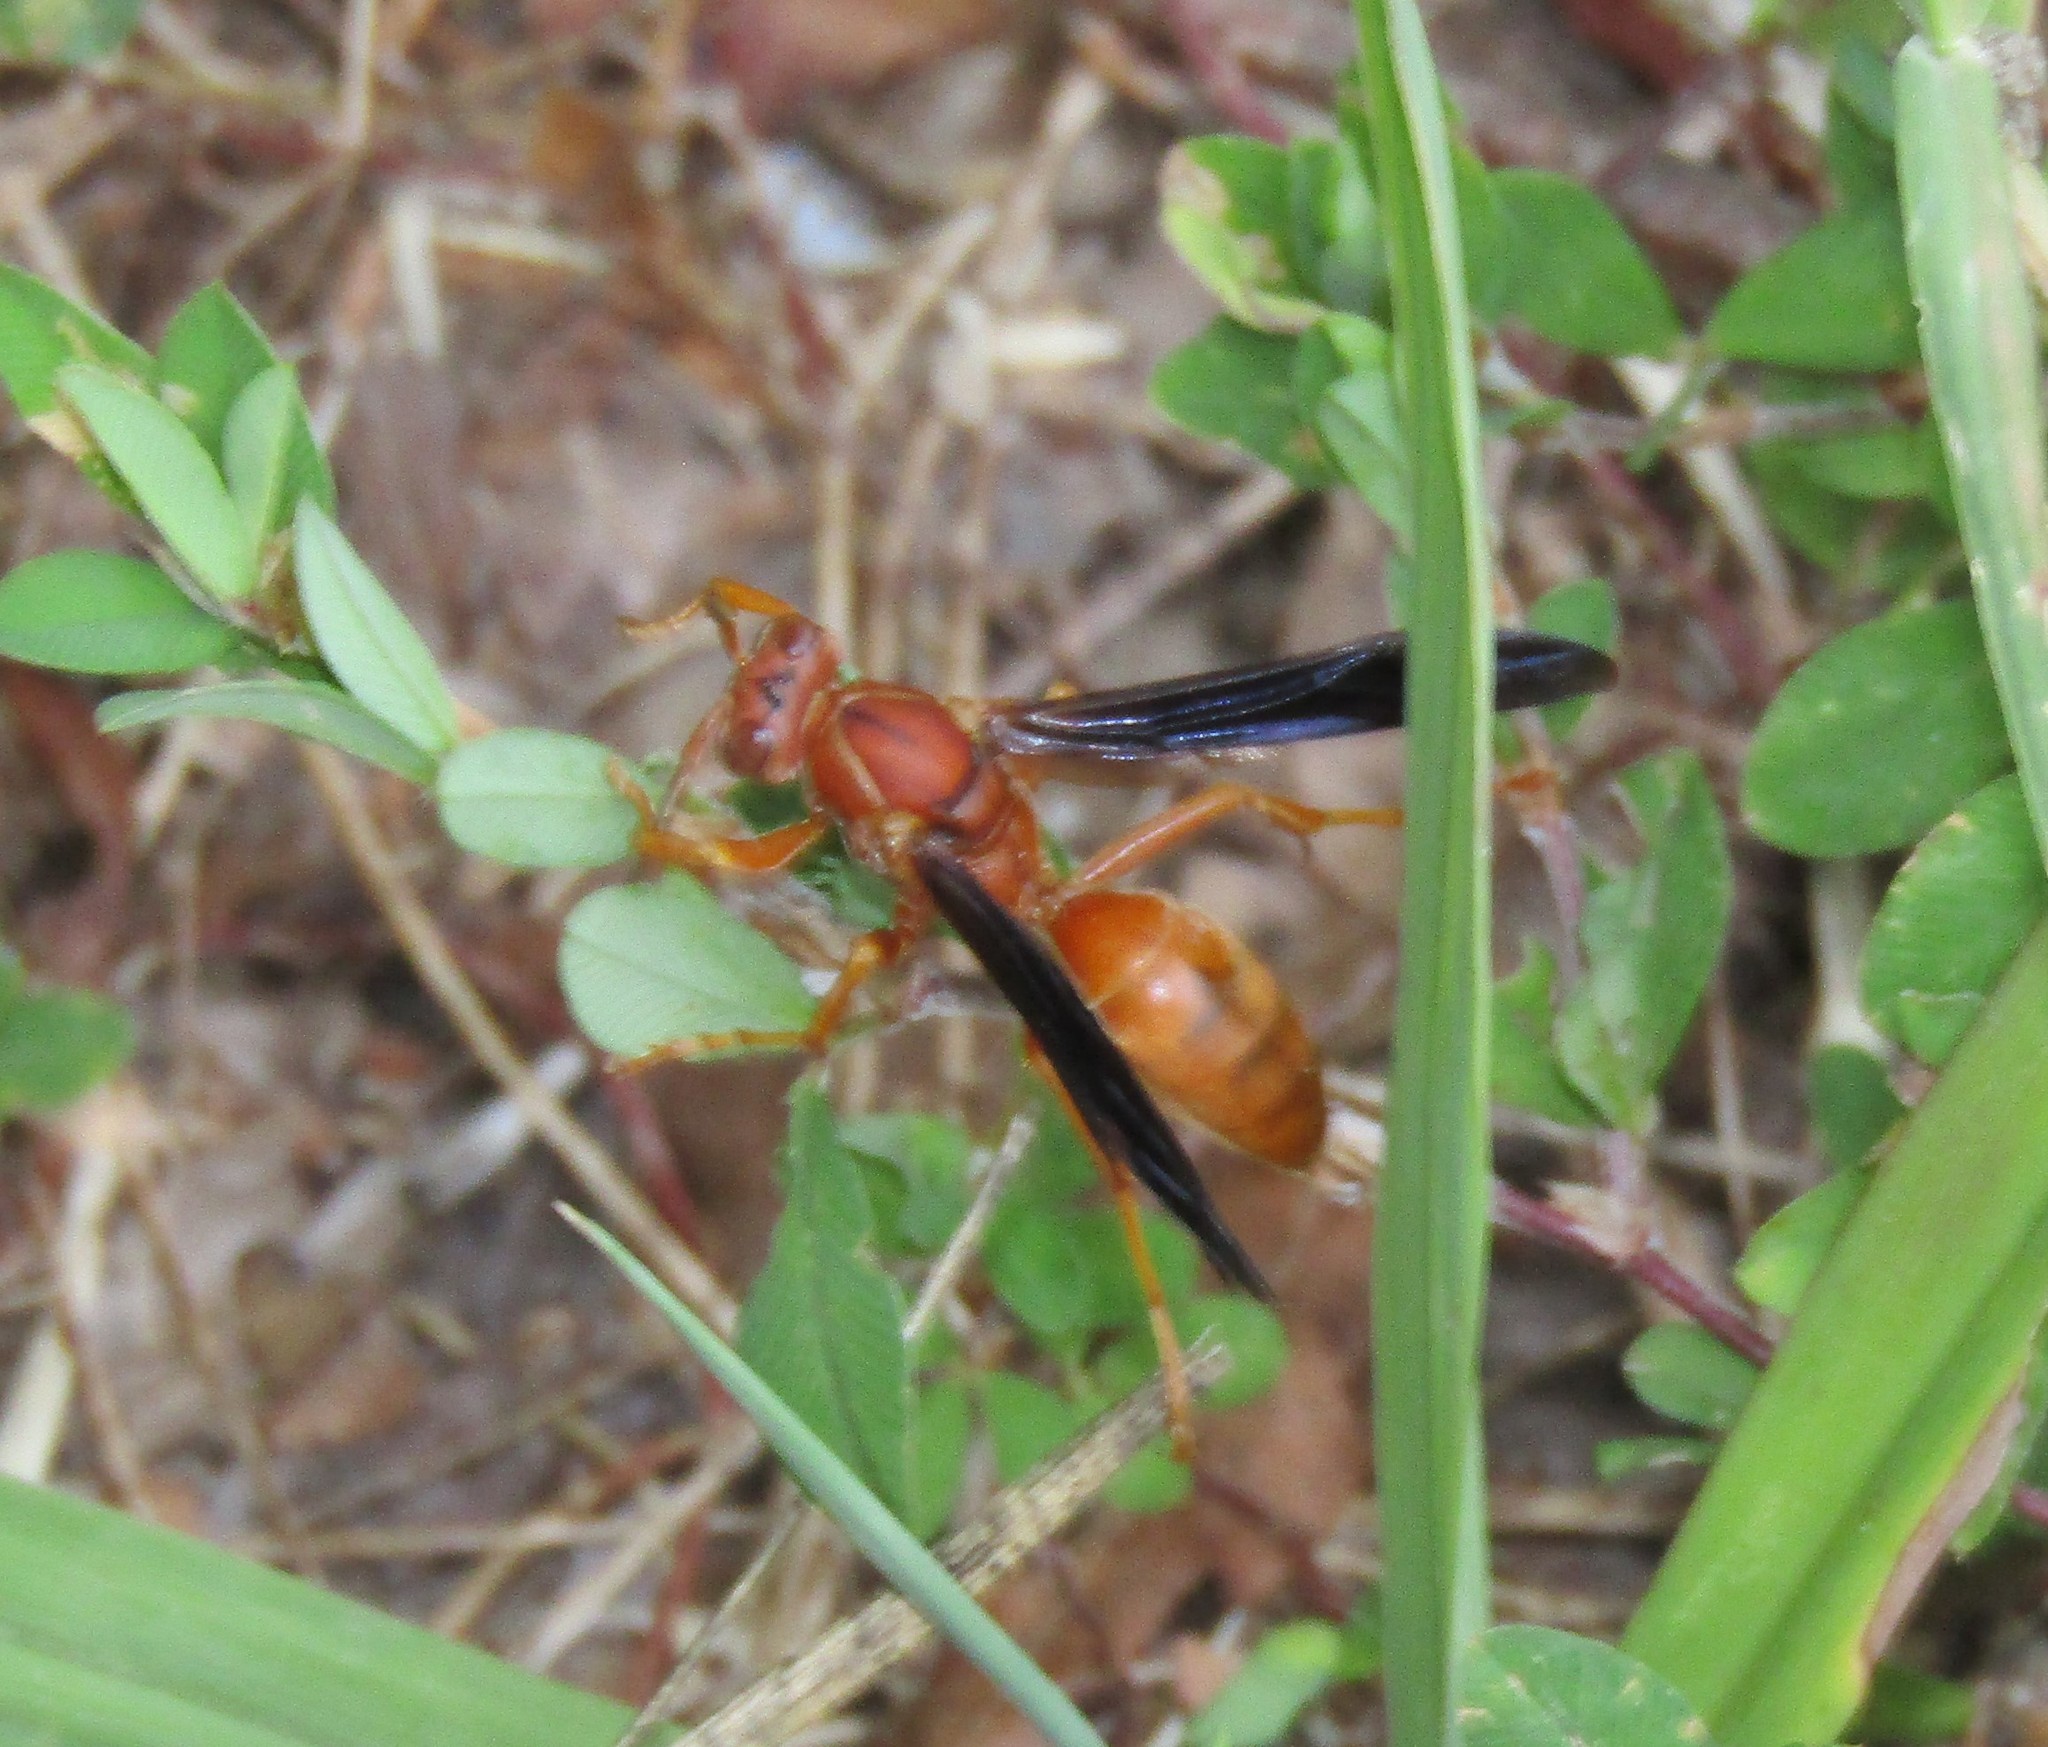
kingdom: Animalia
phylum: Arthropoda
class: Insecta
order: Hymenoptera
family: Eumenidae
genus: Polistes
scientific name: Polistes carolina
